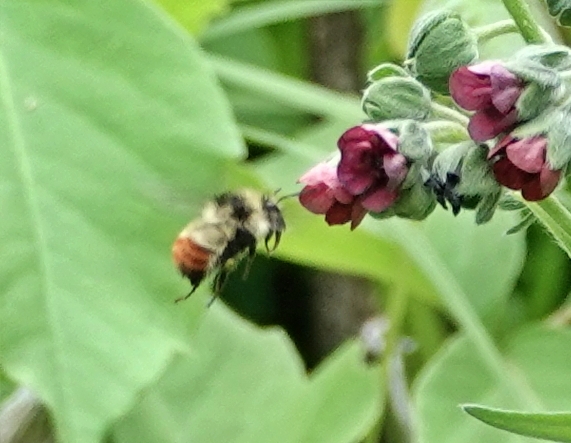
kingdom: Animalia
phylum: Arthropoda
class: Insecta
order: Hymenoptera
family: Apidae
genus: Bombus
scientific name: Bombus centralis
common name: Central bumble bee
